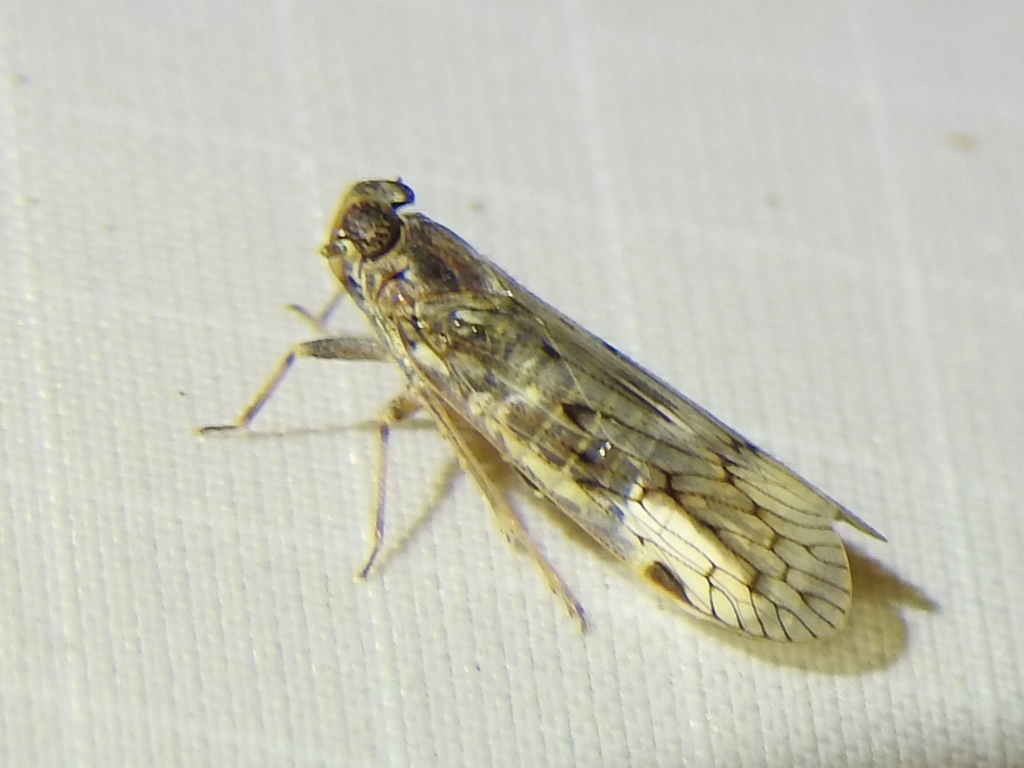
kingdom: Animalia
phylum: Arthropoda
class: Insecta
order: Hemiptera
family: Cixiidae
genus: Melanoliarus
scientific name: Melanoliarus aridus
